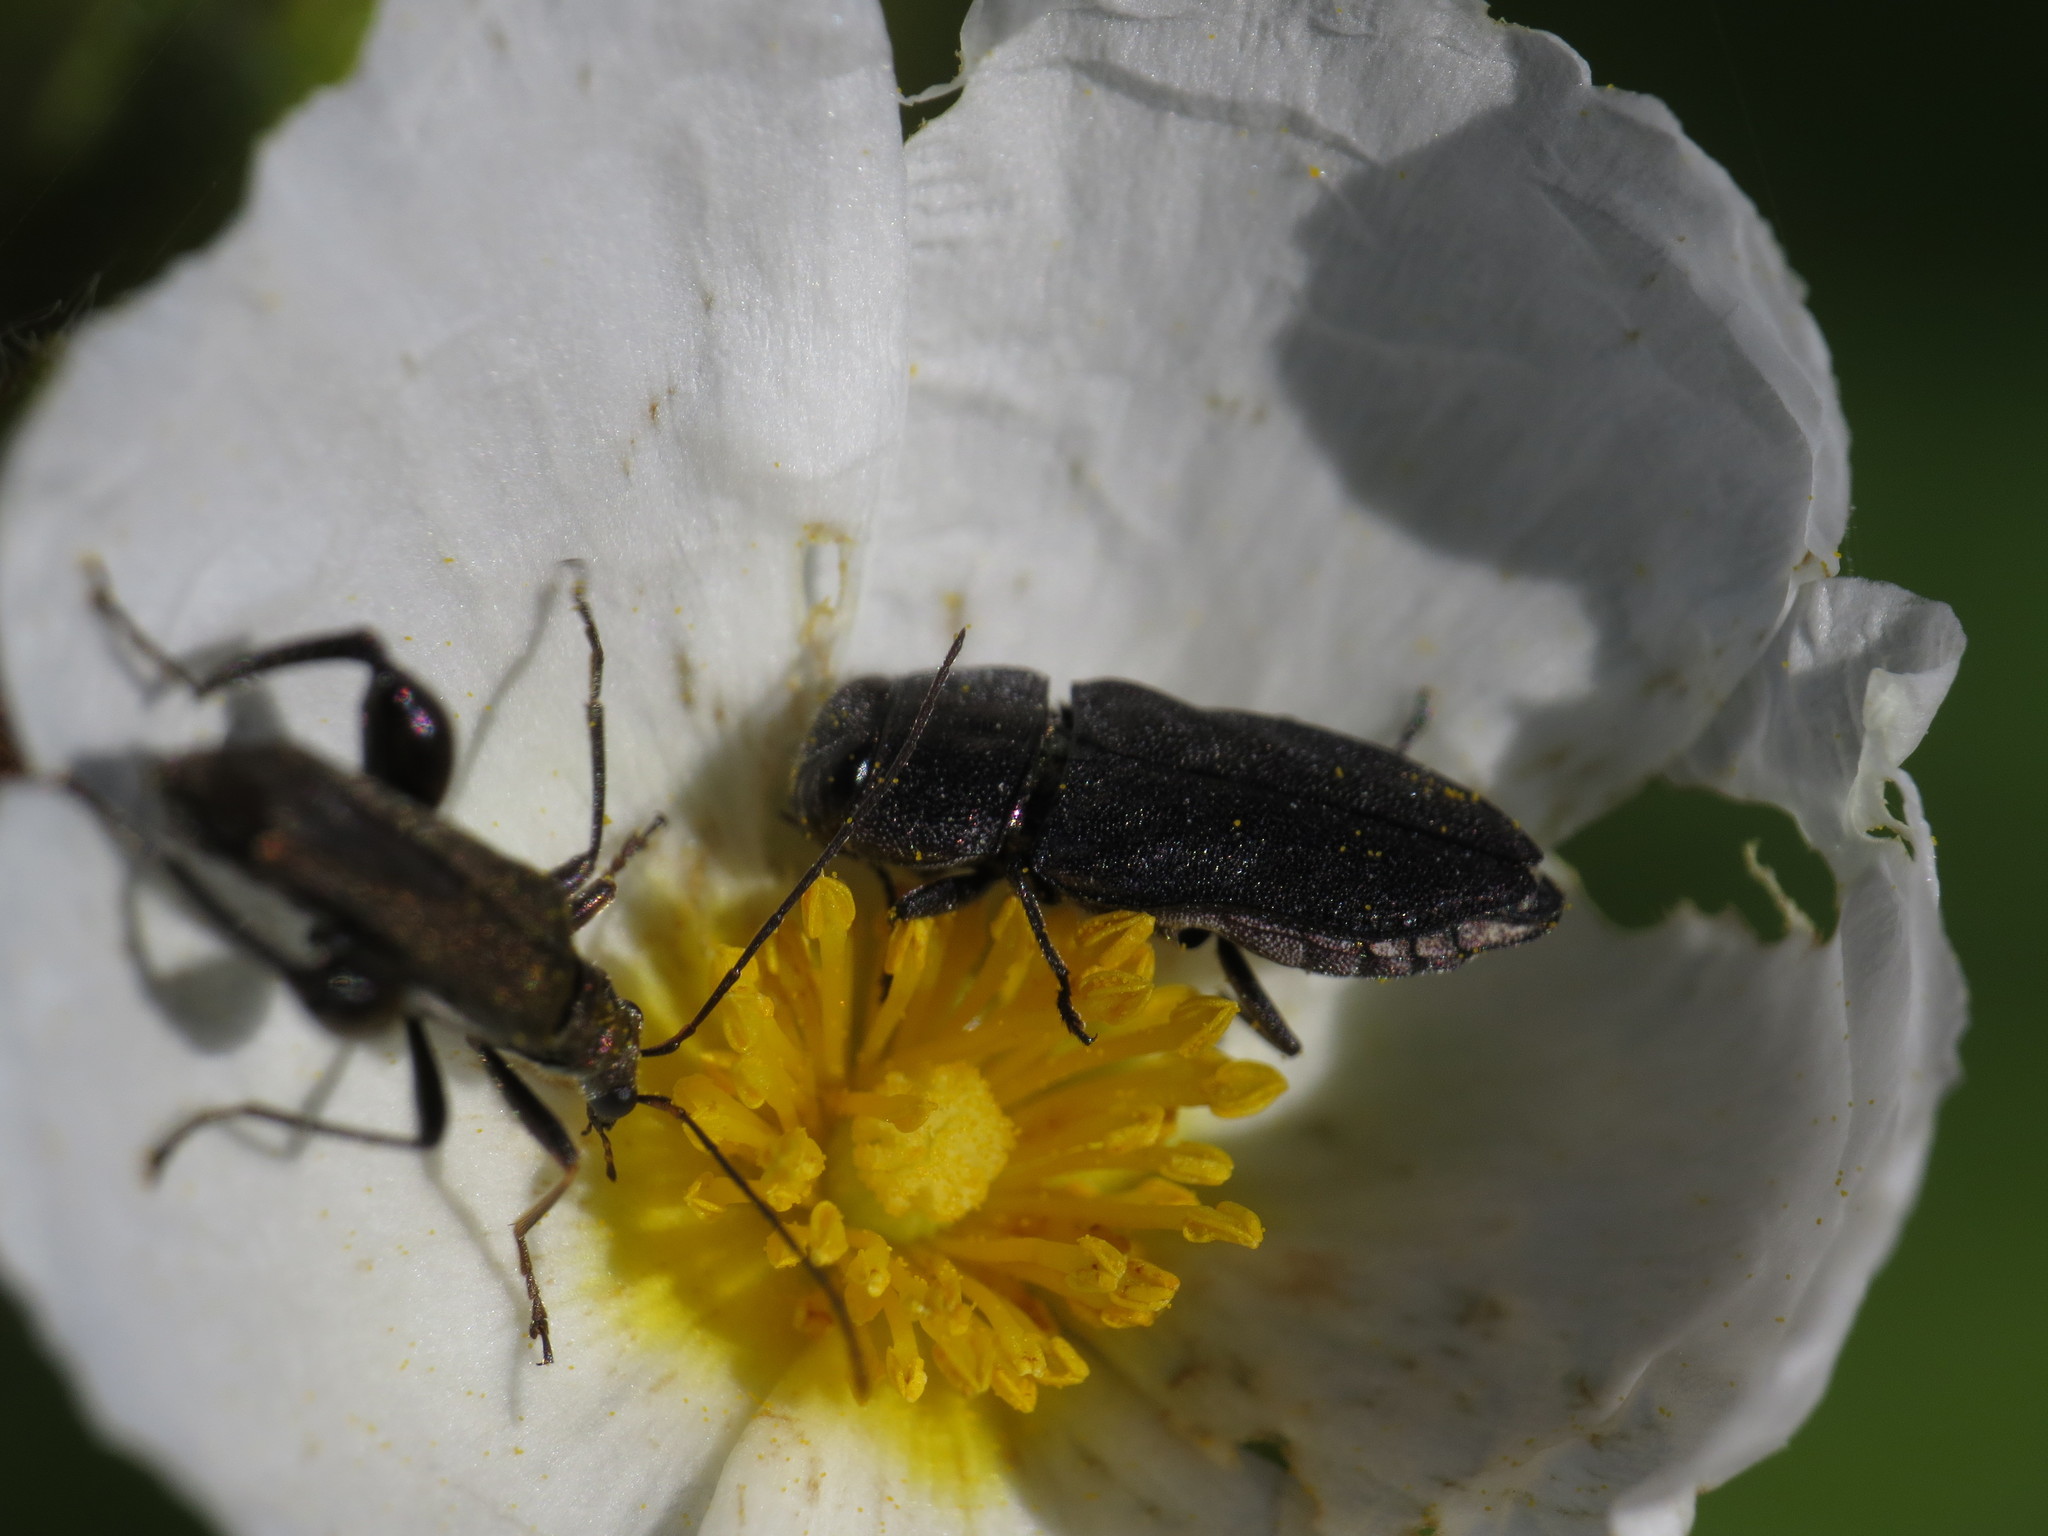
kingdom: Animalia
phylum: Arthropoda
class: Insecta
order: Coleoptera
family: Buprestidae
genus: Anthaxia
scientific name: Anthaxia confusa
